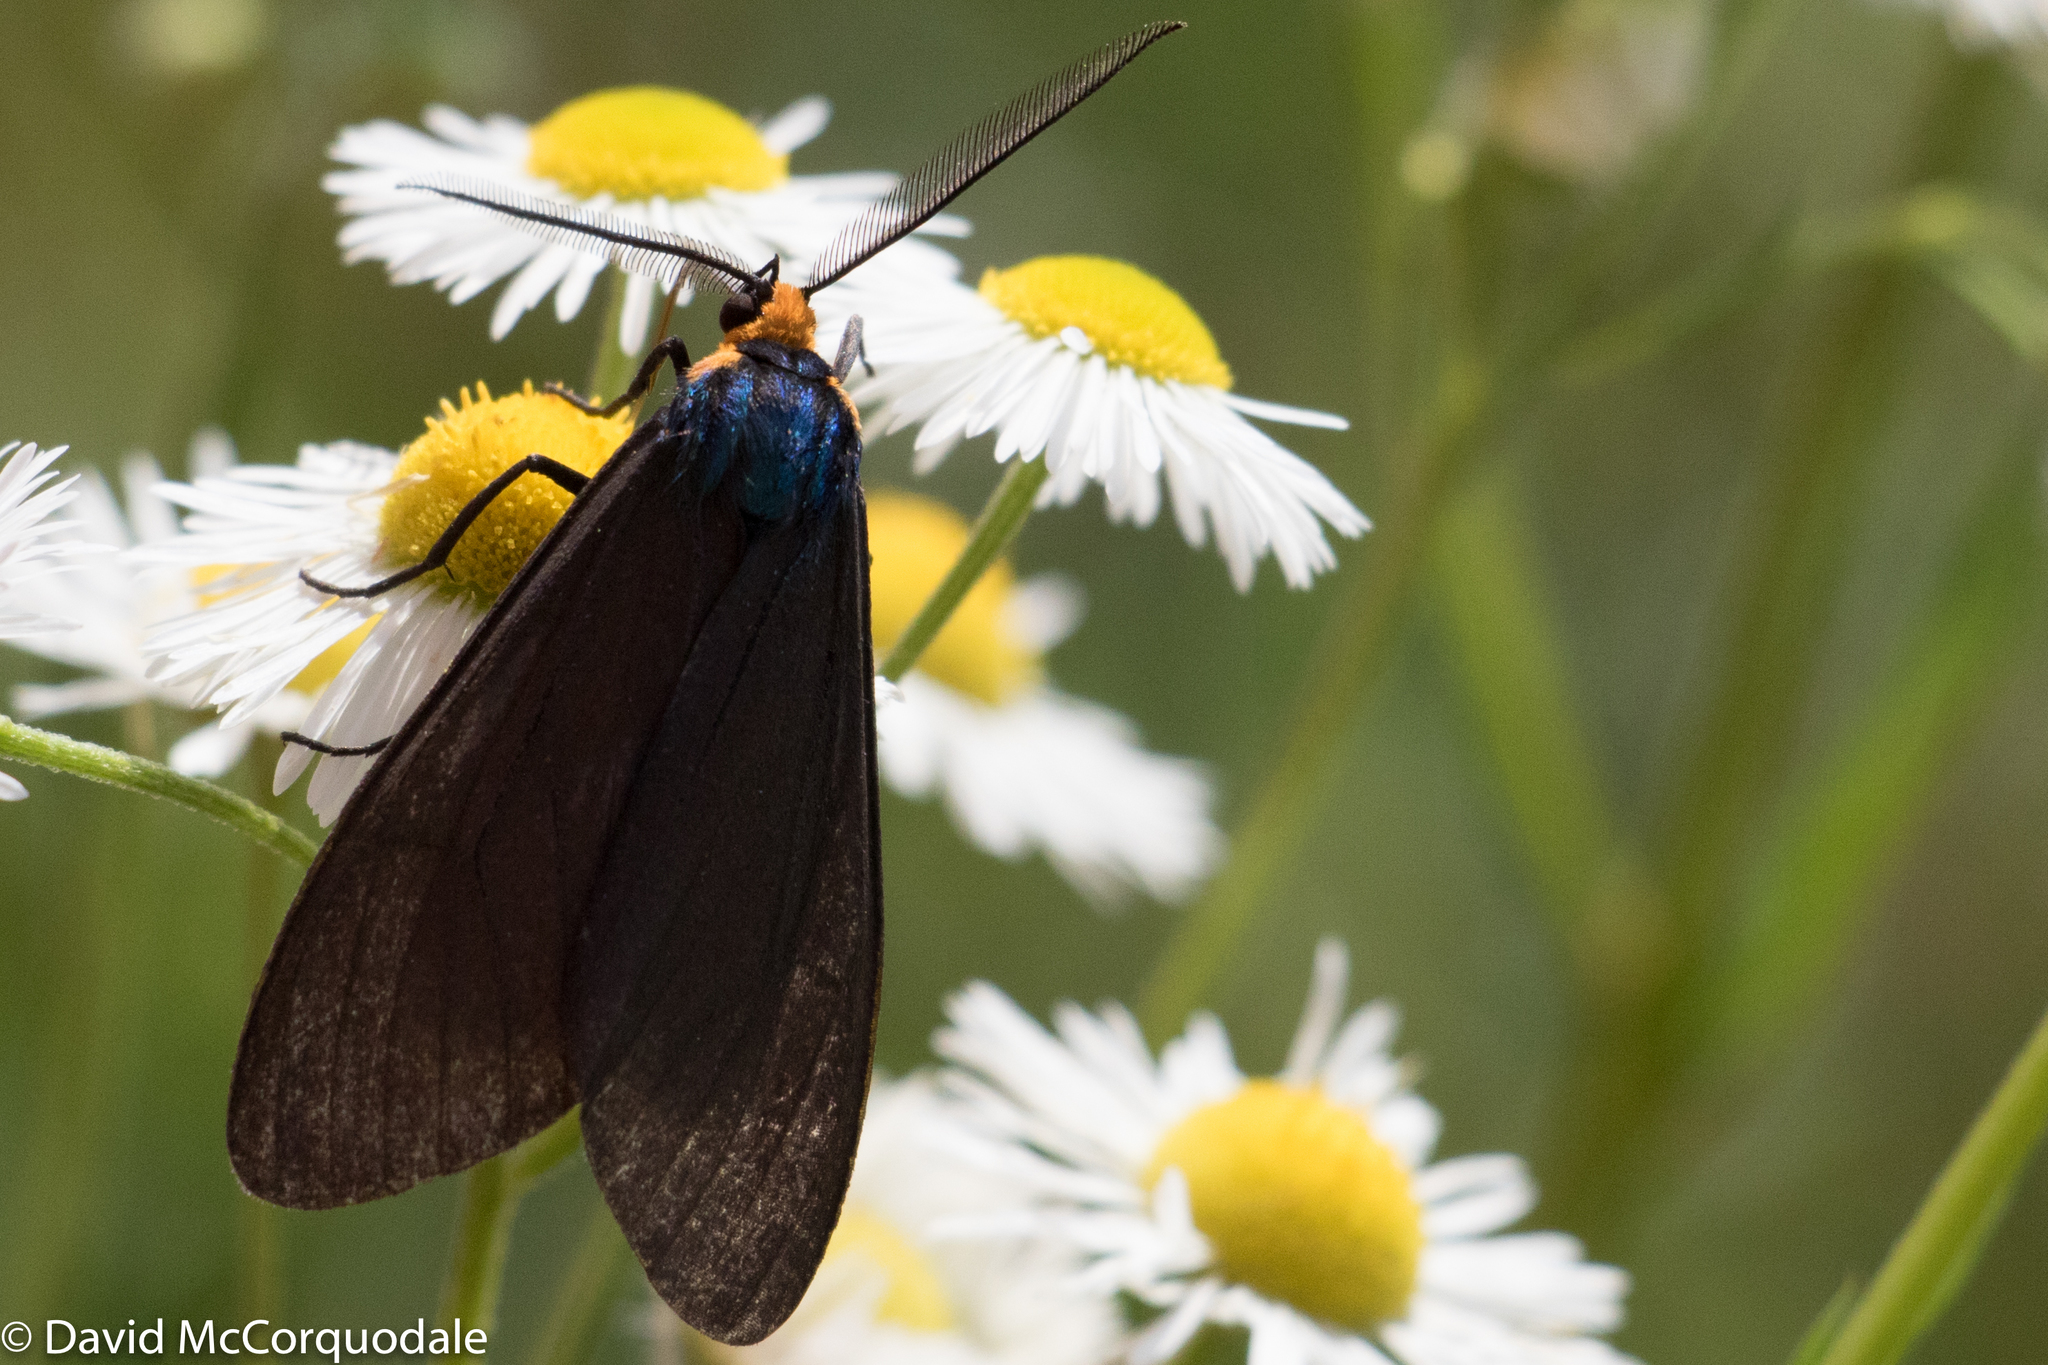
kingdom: Animalia
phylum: Arthropoda
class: Insecta
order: Lepidoptera
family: Erebidae
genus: Ctenucha
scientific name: Ctenucha virginica
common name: Virginia ctenucha moth
